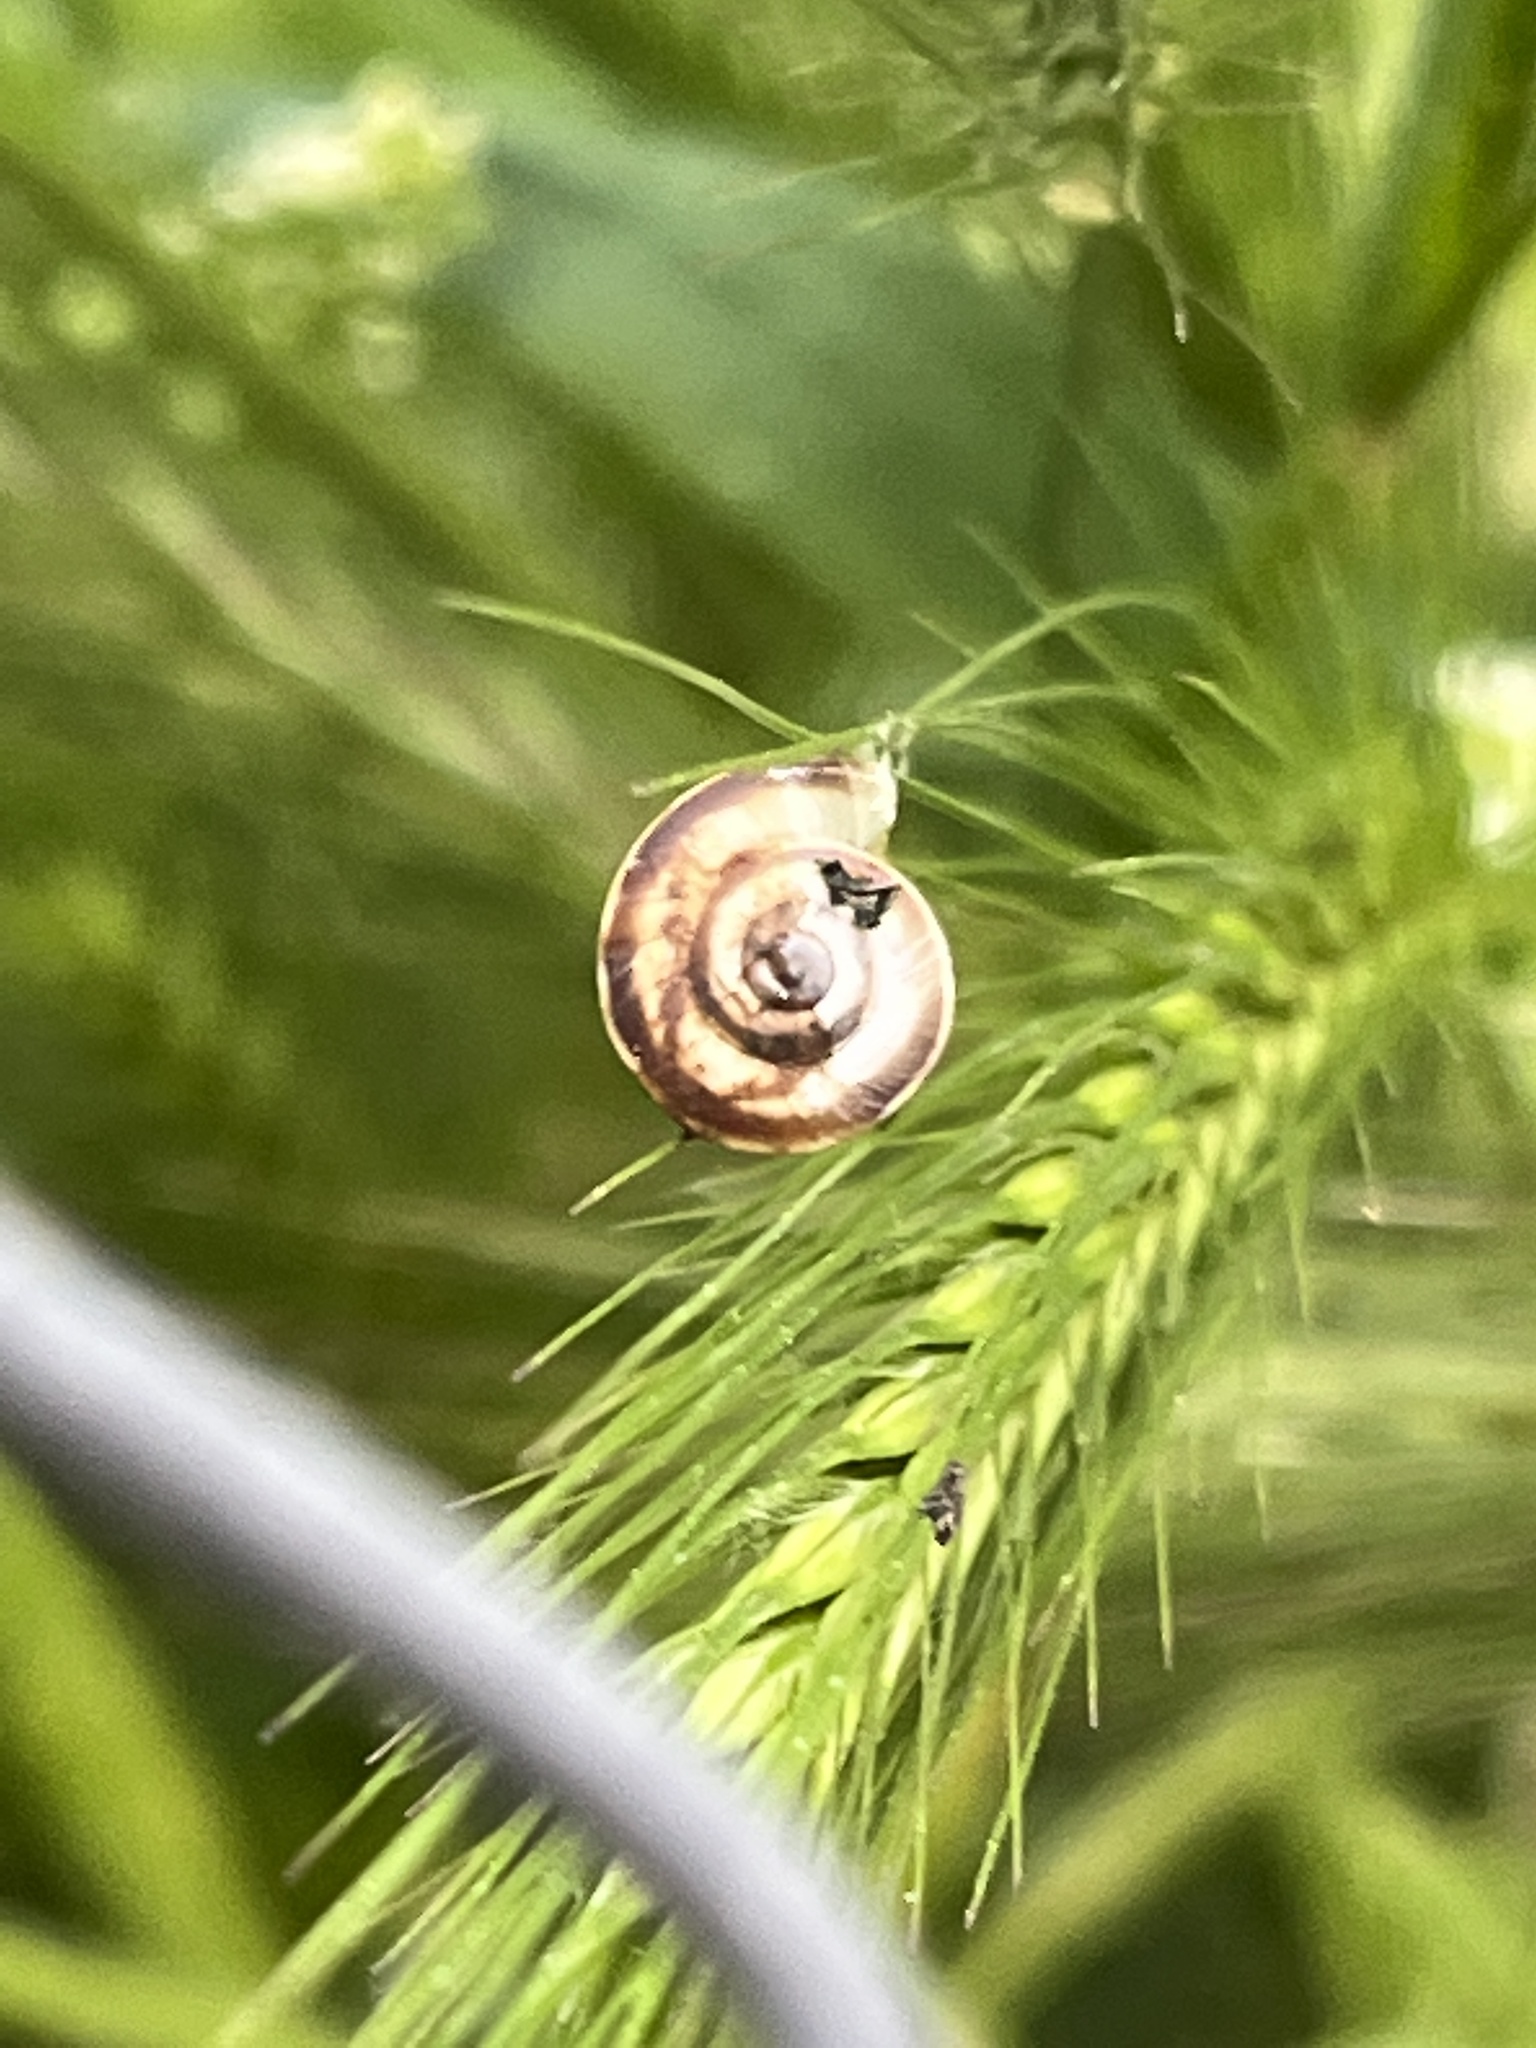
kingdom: Animalia
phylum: Mollusca
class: Gastropoda
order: Stylommatophora
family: Geomitridae
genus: Xerolenta
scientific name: Xerolenta obvia
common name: White heath snail
